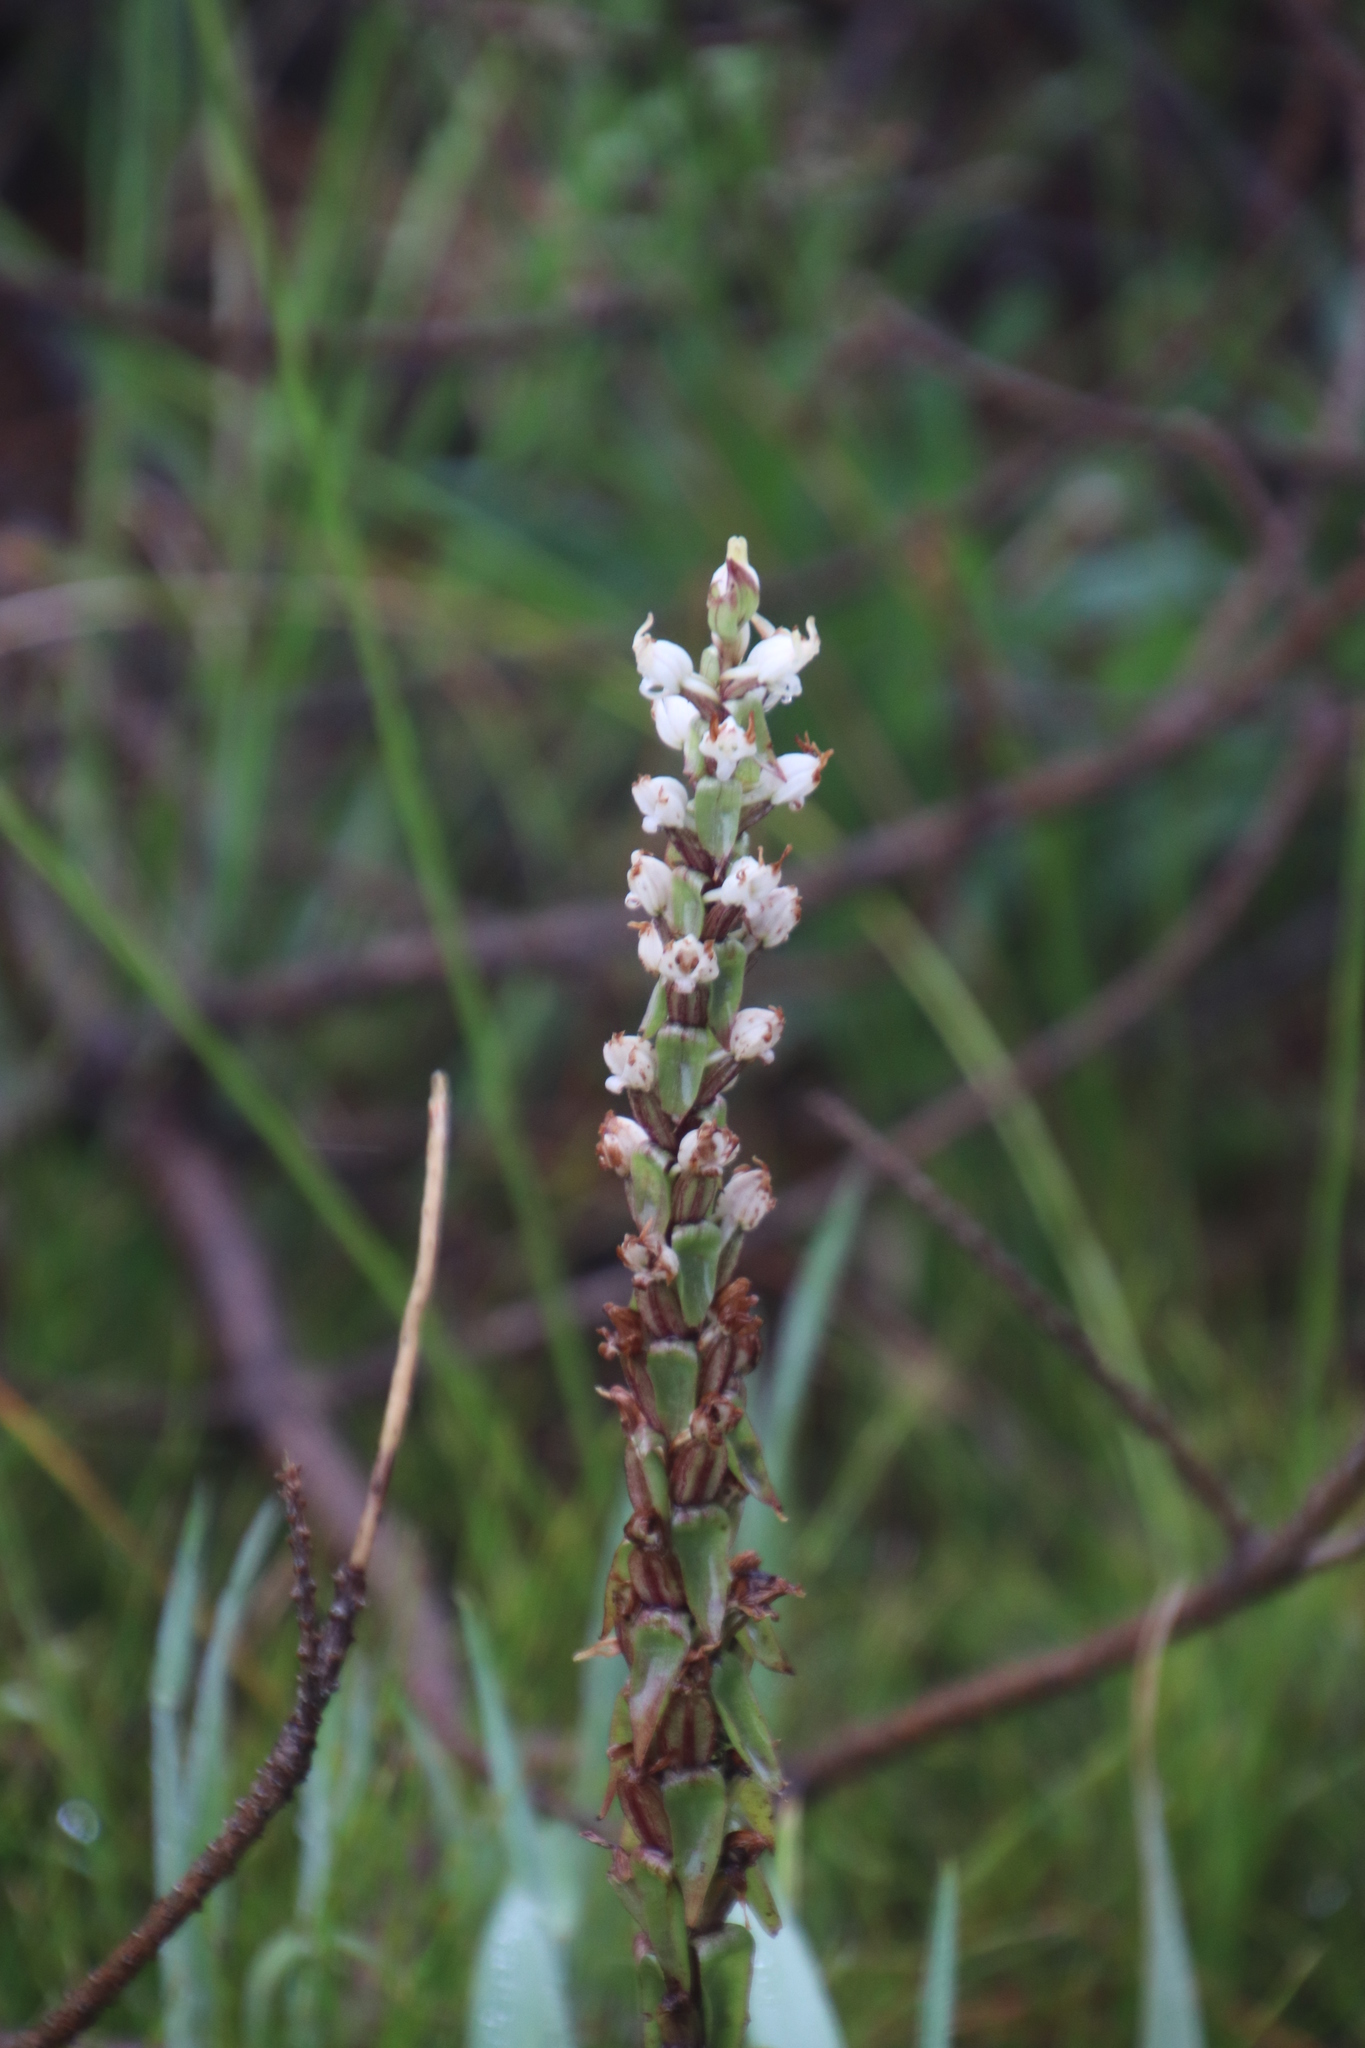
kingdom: Plantae
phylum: Tracheophyta
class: Liliopsida
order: Asparagales
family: Orchidaceae
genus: Satyrium
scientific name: Satyrium ligulatum
